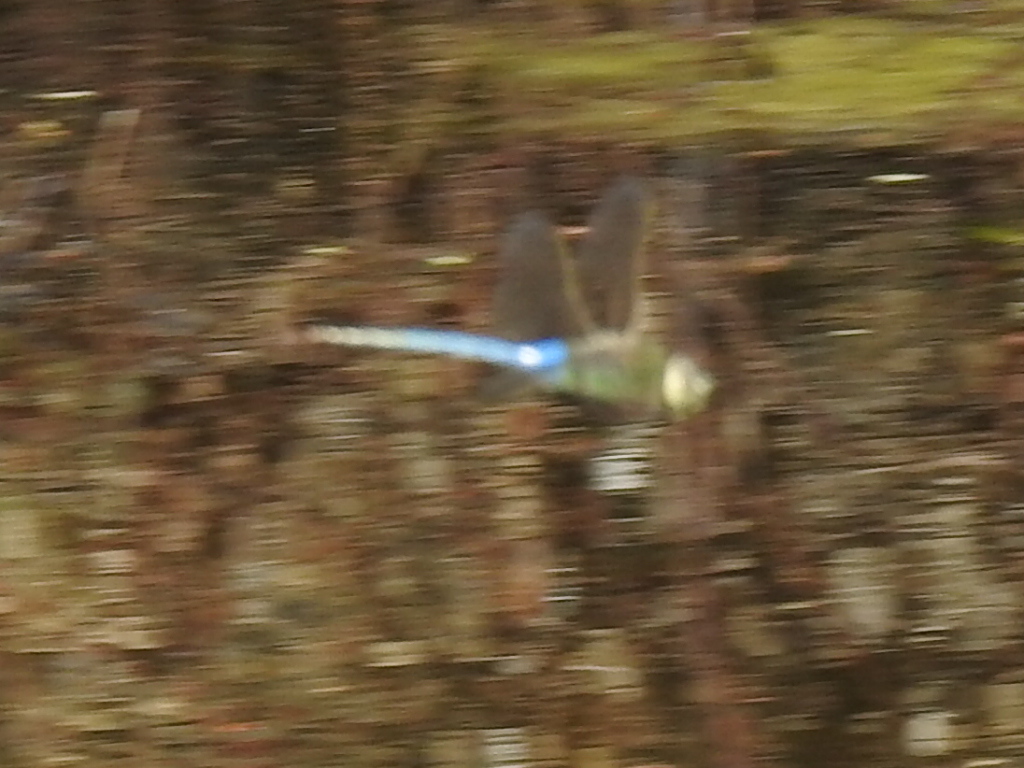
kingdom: Animalia
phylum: Arthropoda
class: Insecta
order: Odonata
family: Aeshnidae
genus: Anax
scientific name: Anax junius
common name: Common green darner
